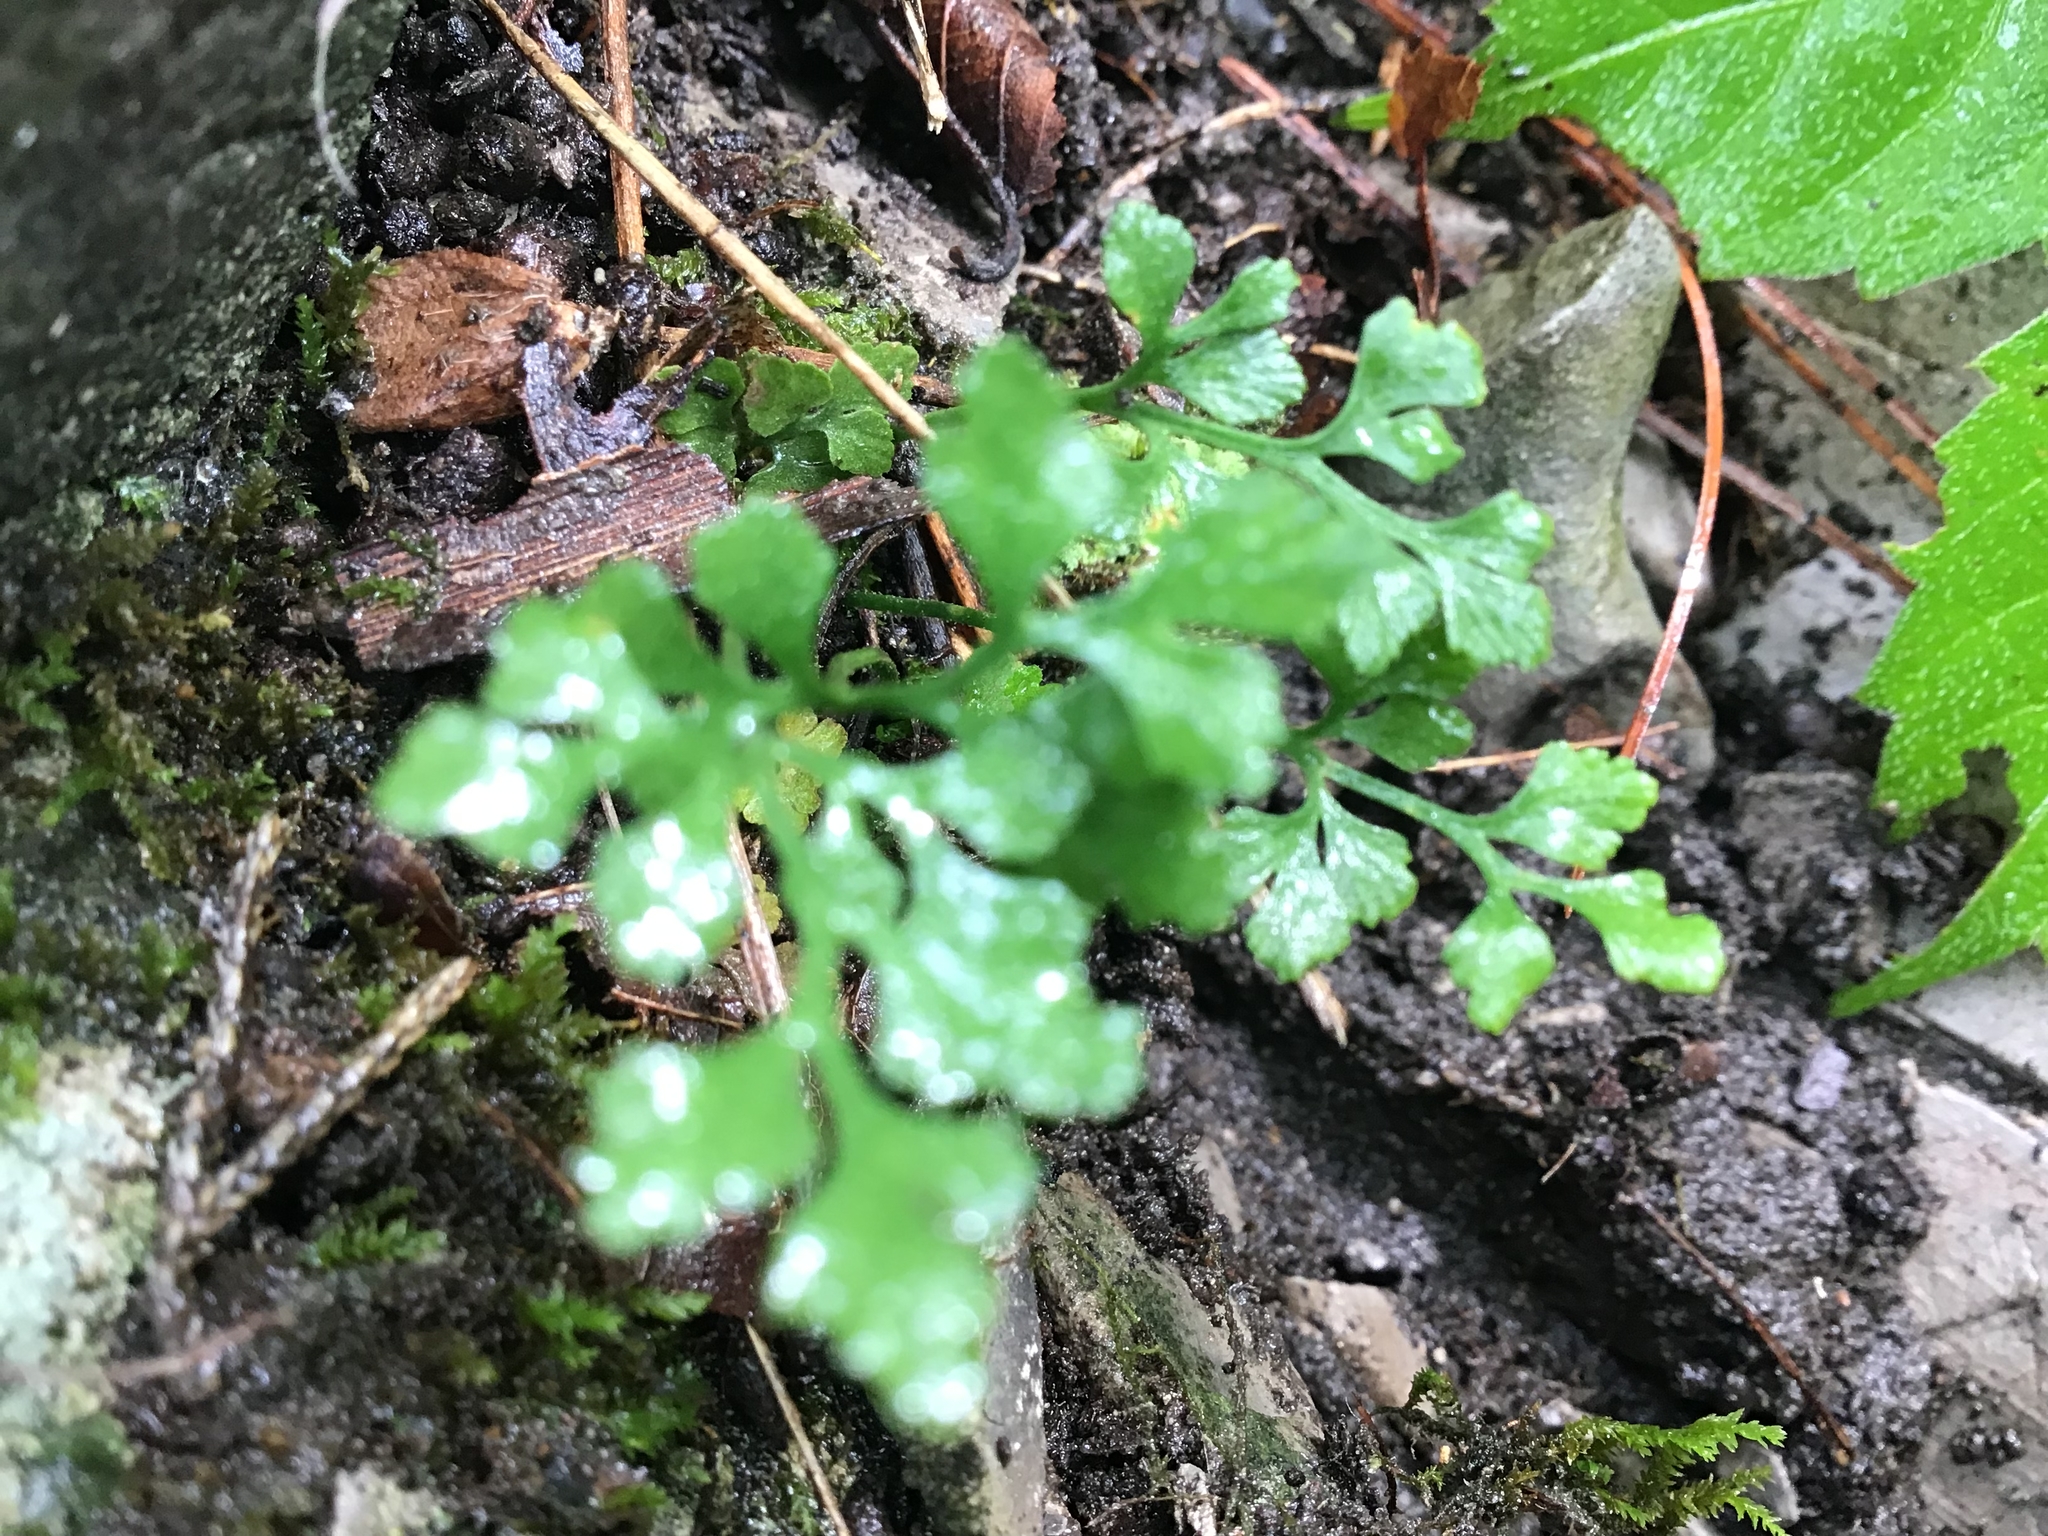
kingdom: Plantae
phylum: Tracheophyta
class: Polypodiopsida
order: Polypodiales
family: Aspleniaceae
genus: Asplenium
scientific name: Asplenium ruta-muraria
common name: Wall-rue
